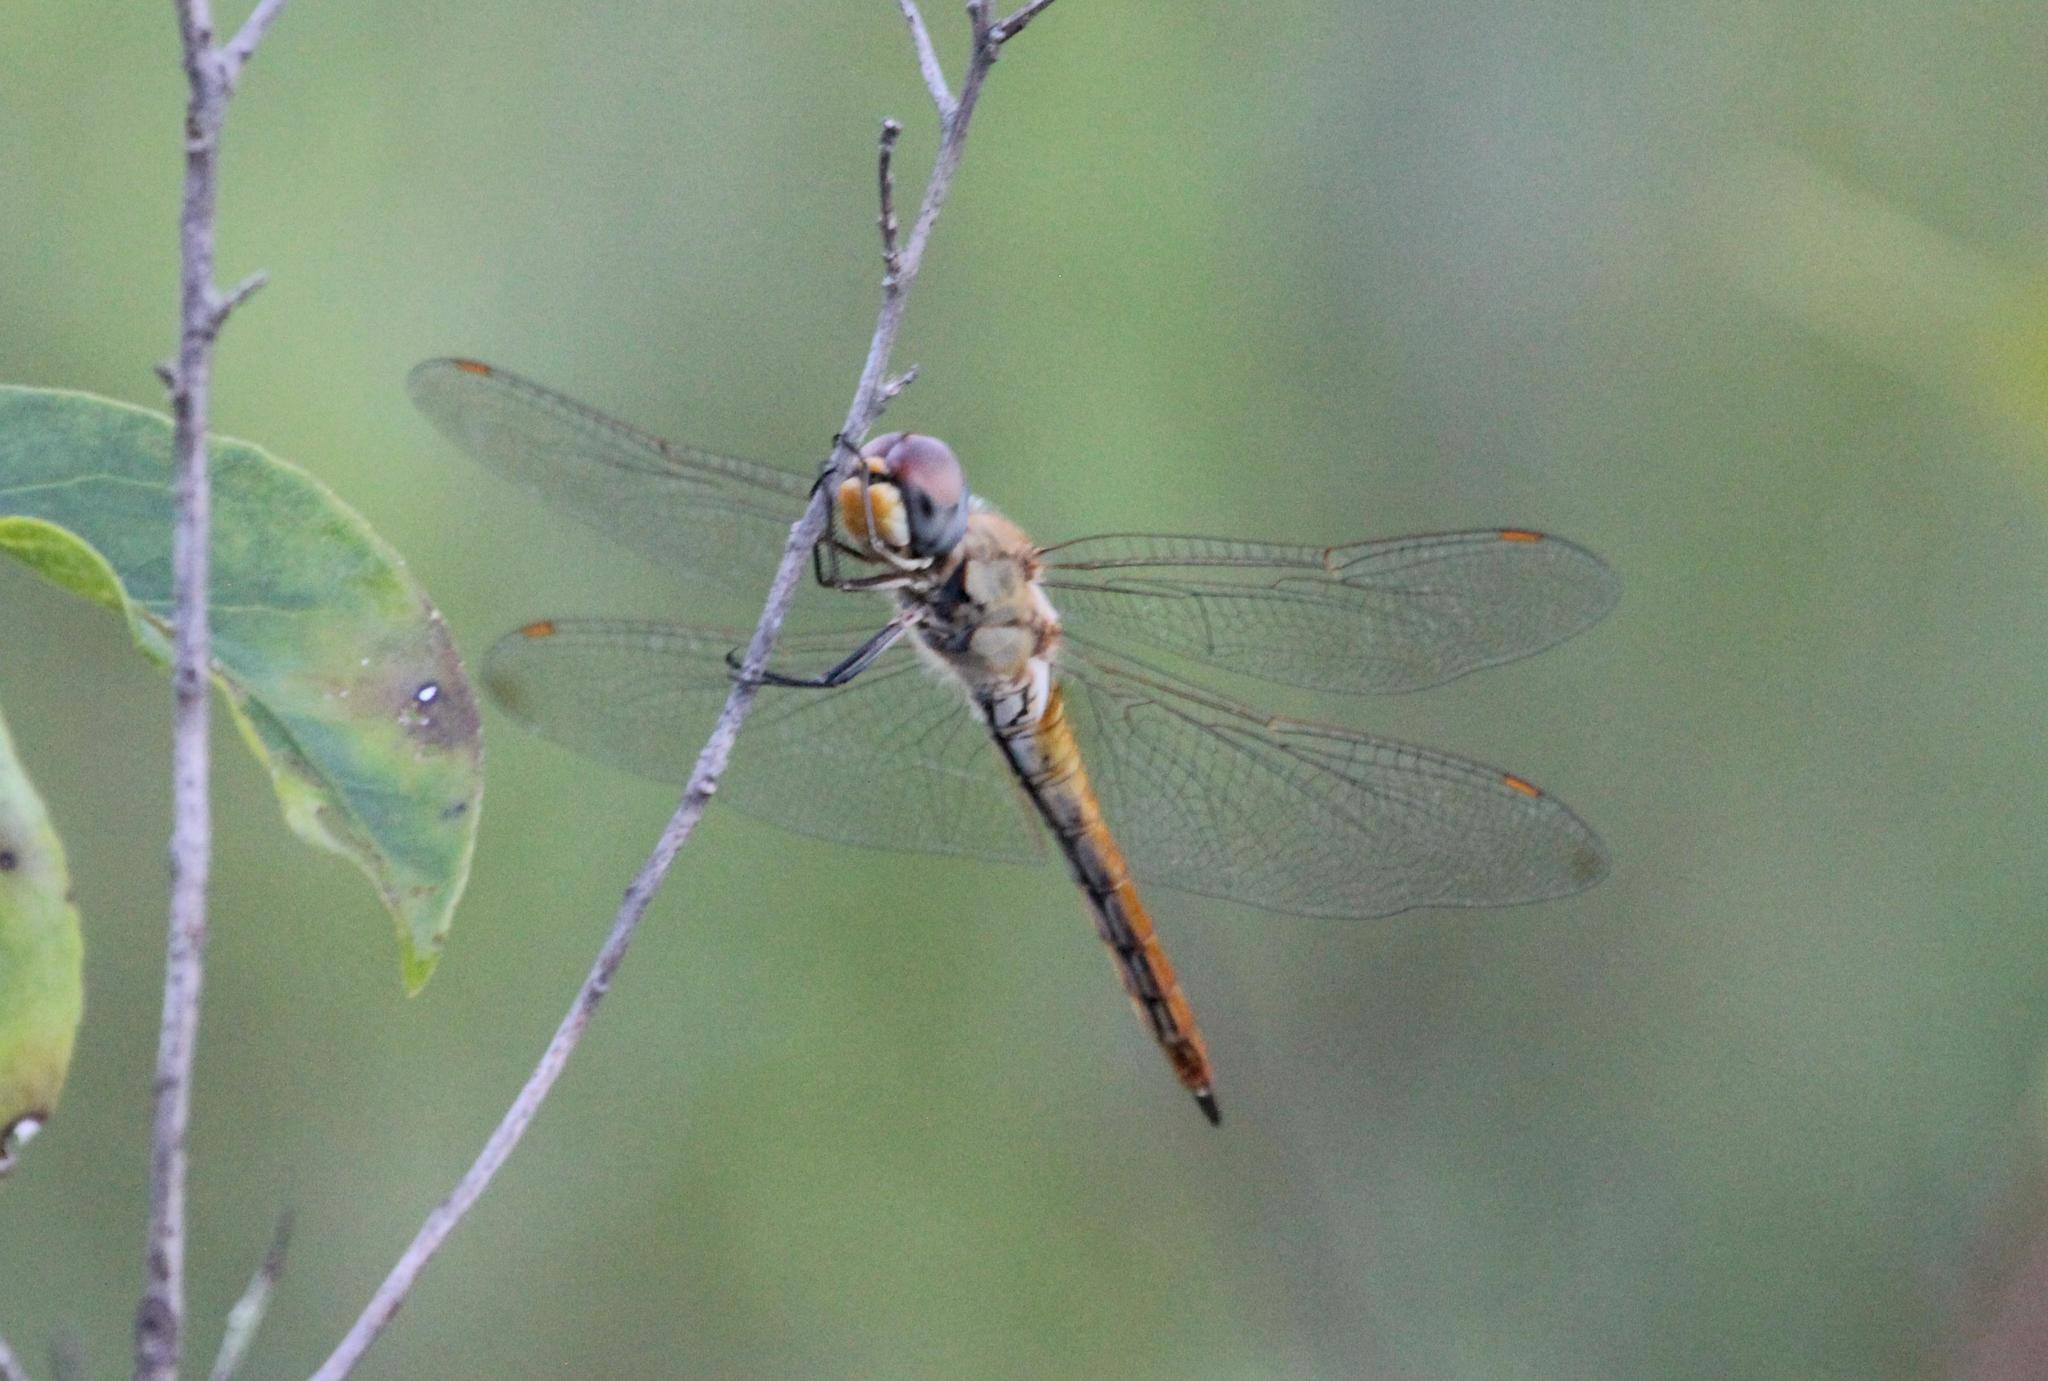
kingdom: Animalia
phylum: Arthropoda
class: Insecta
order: Odonata
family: Libellulidae
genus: Pantala
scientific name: Pantala flavescens
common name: Wandering glider
